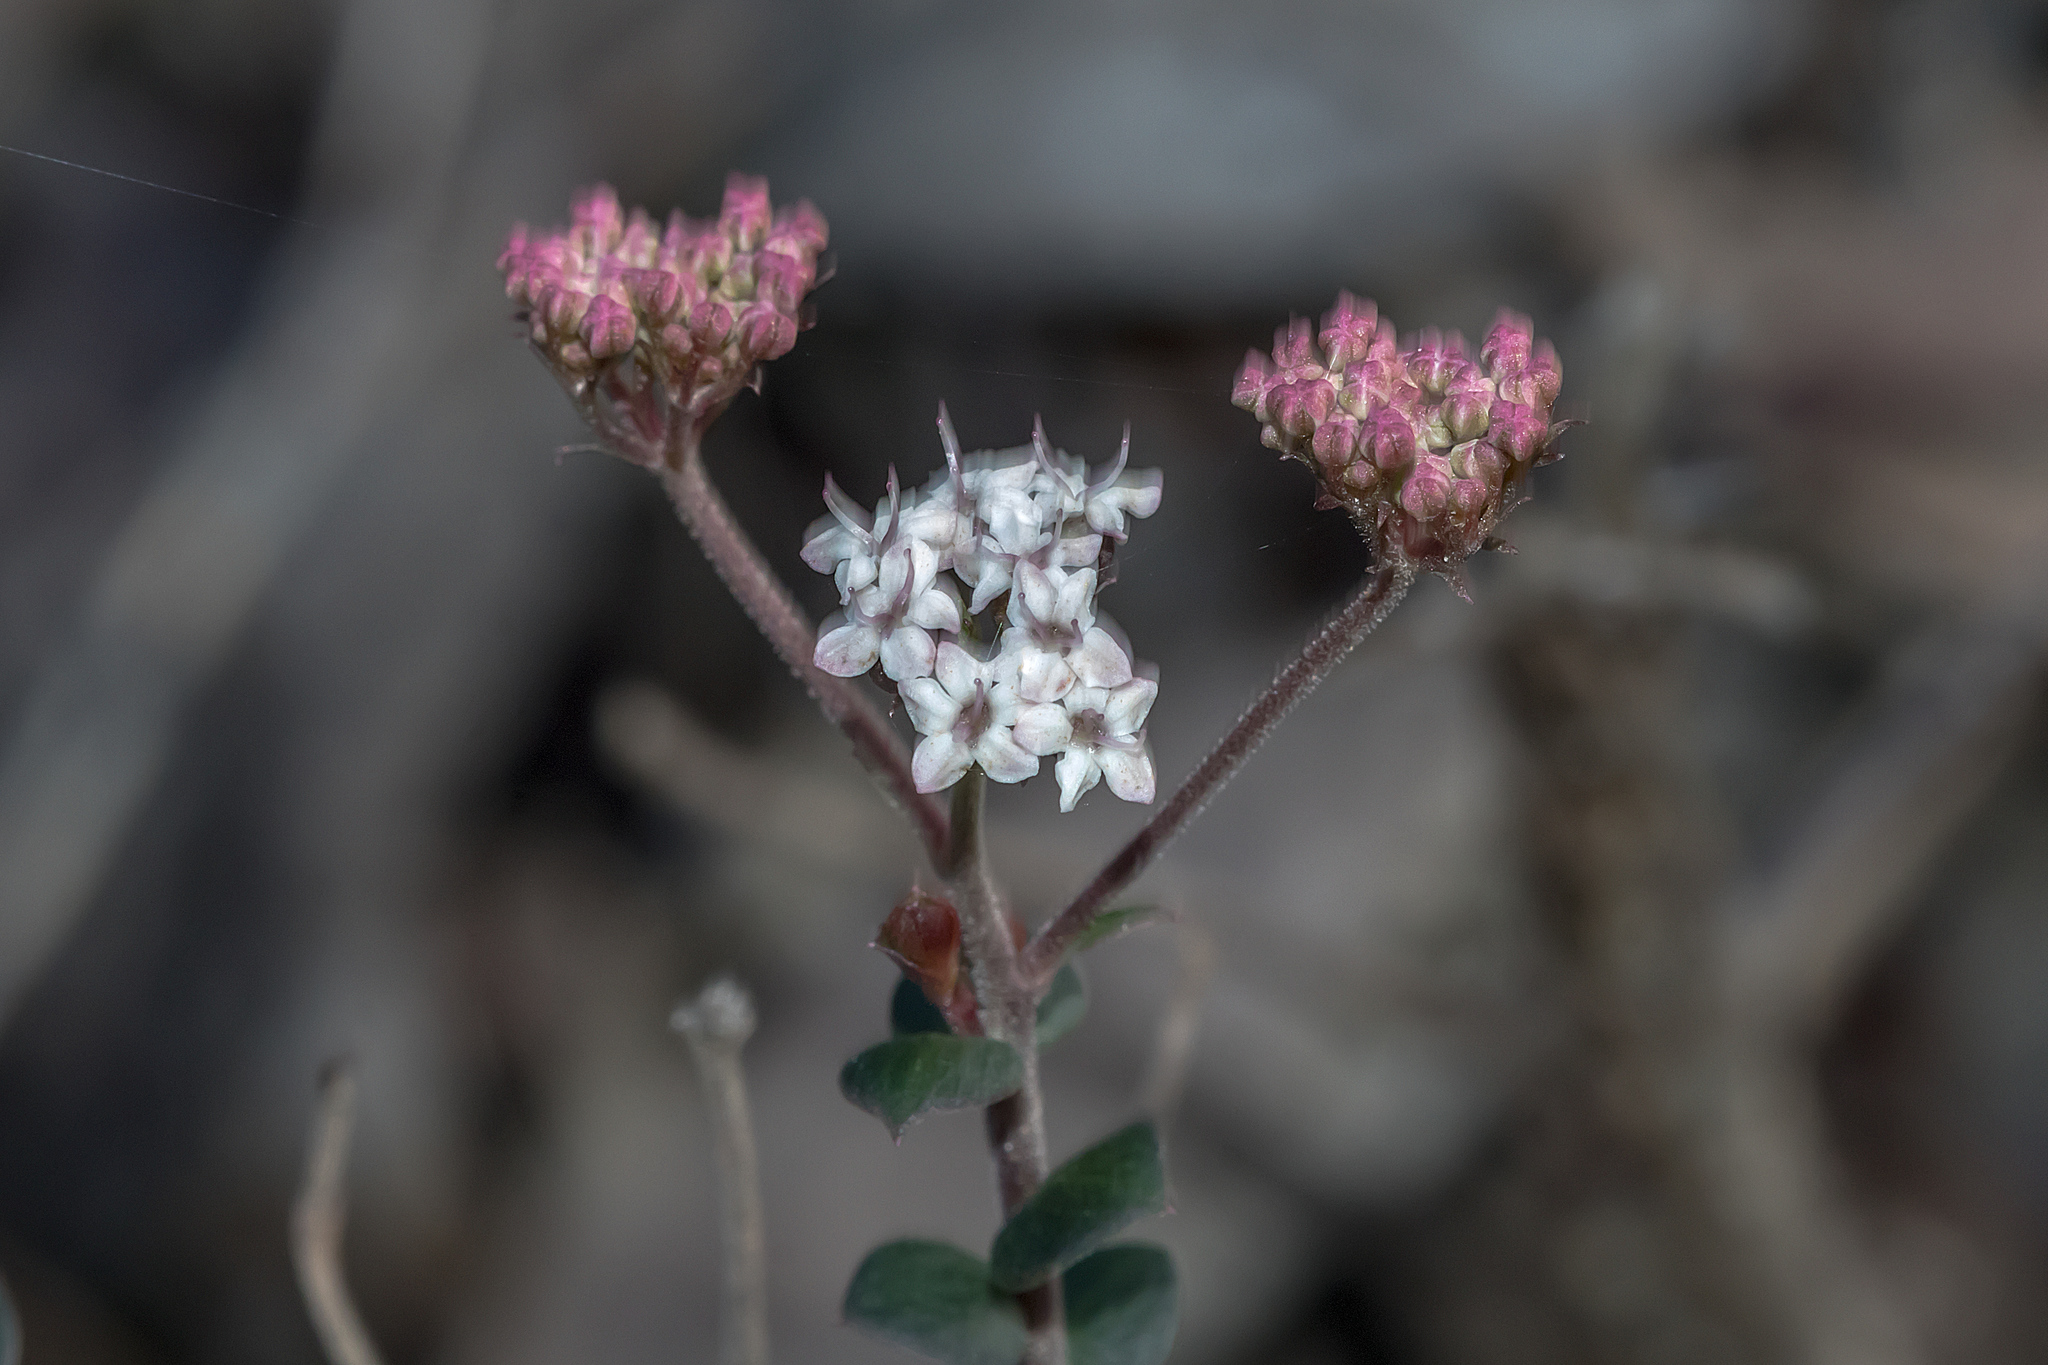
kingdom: Plantae
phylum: Tracheophyta
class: Magnoliopsida
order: Apiales
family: Apiaceae
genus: Platysace
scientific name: Platysace lanceolata
